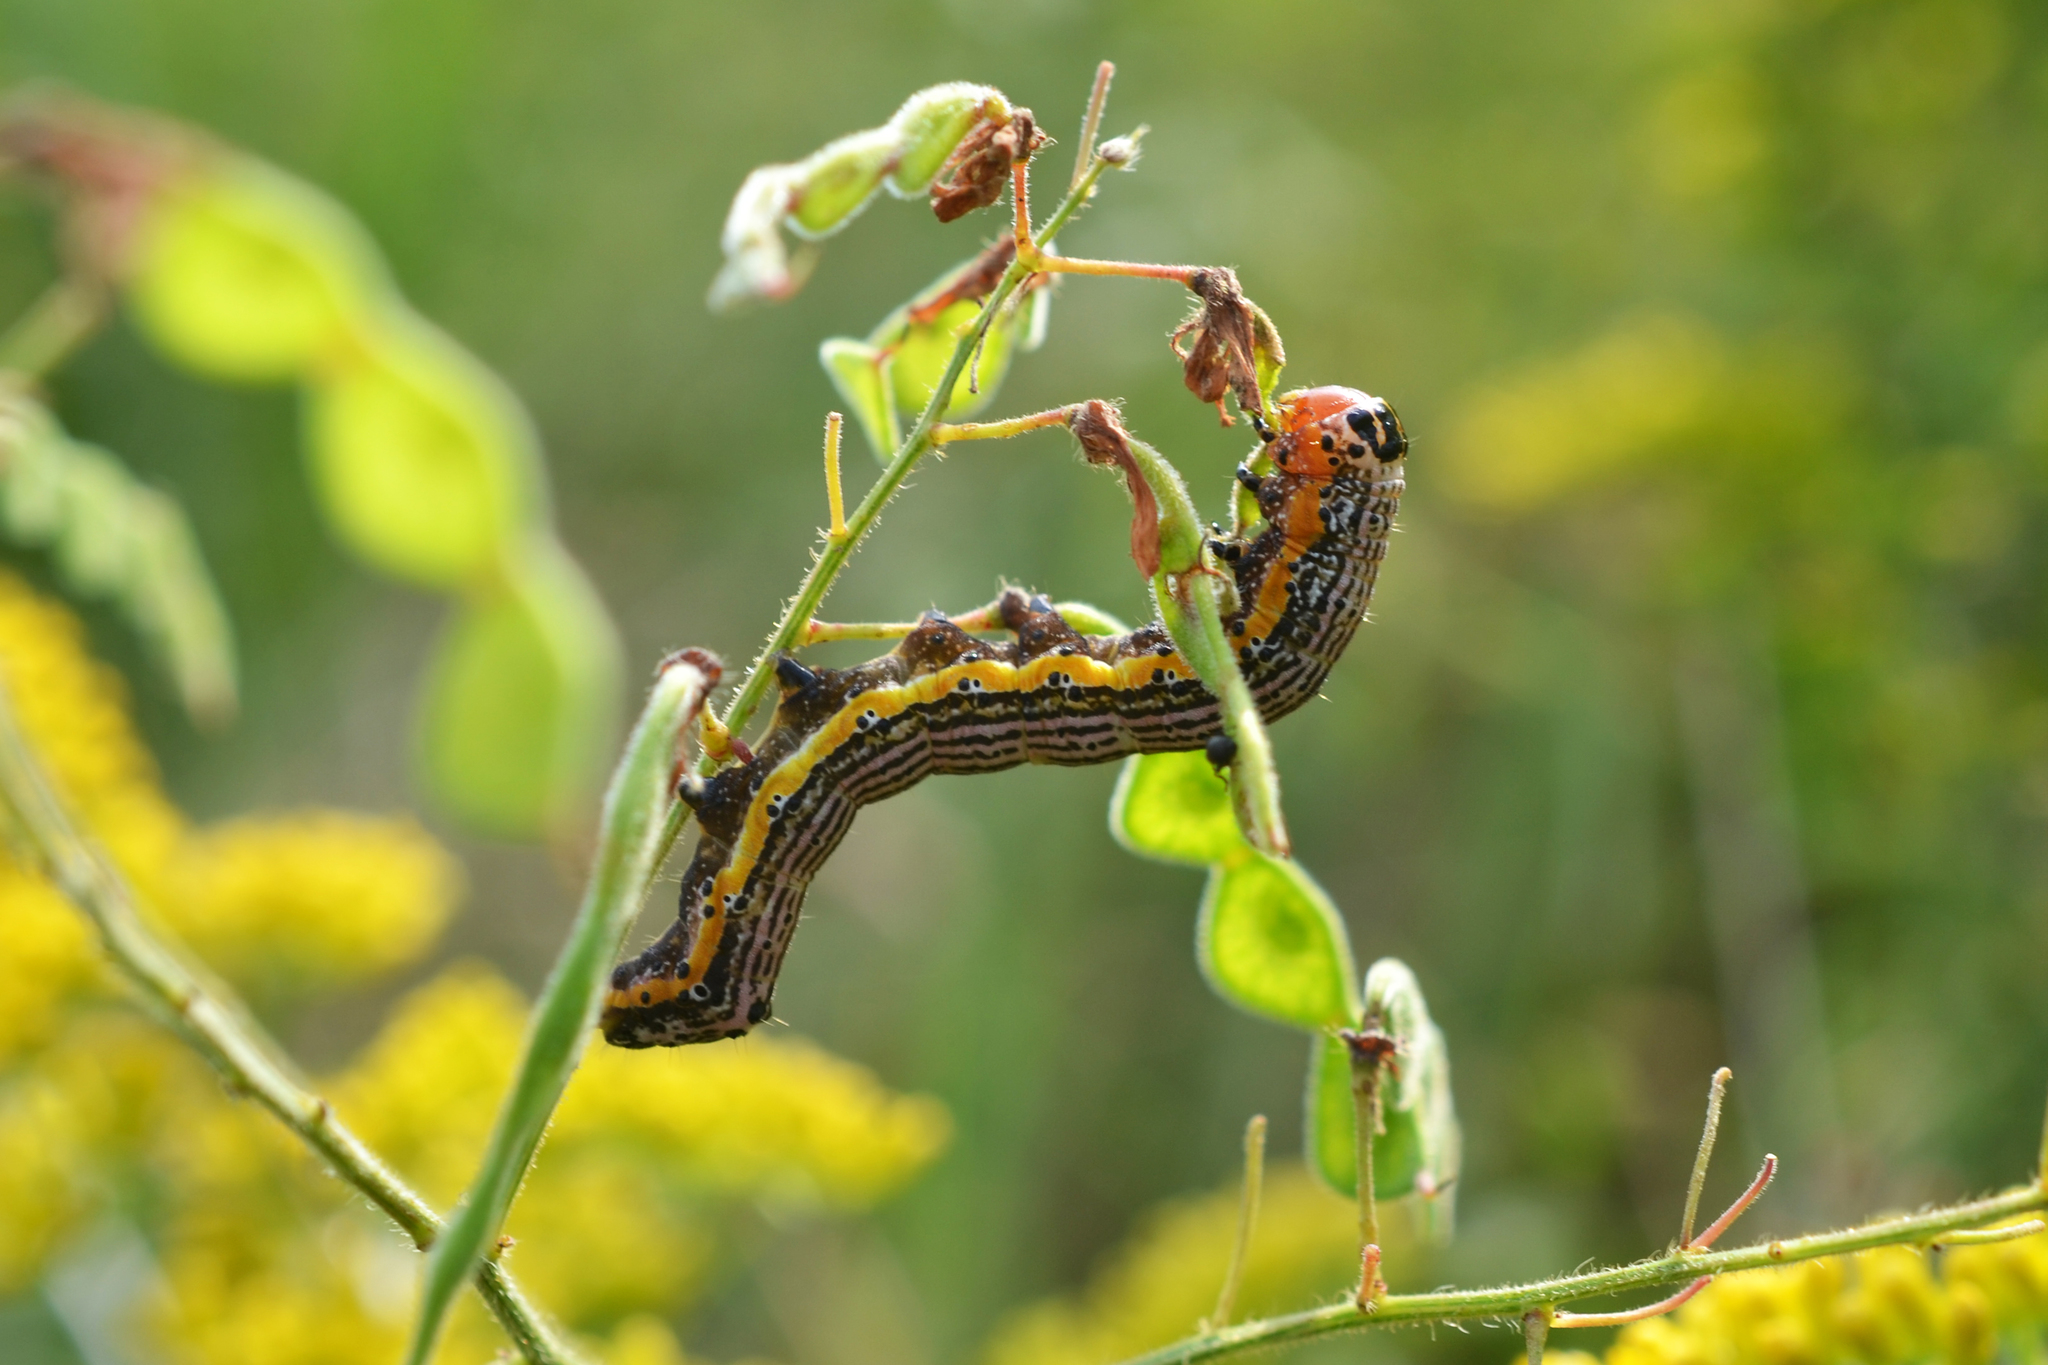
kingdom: Animalia
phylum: Arthropoda
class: Insecta
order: Lepidoptera
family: Noctuidae
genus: Pyrrhia
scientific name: Pyrrhia exprimens
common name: Purple-lined sallow
